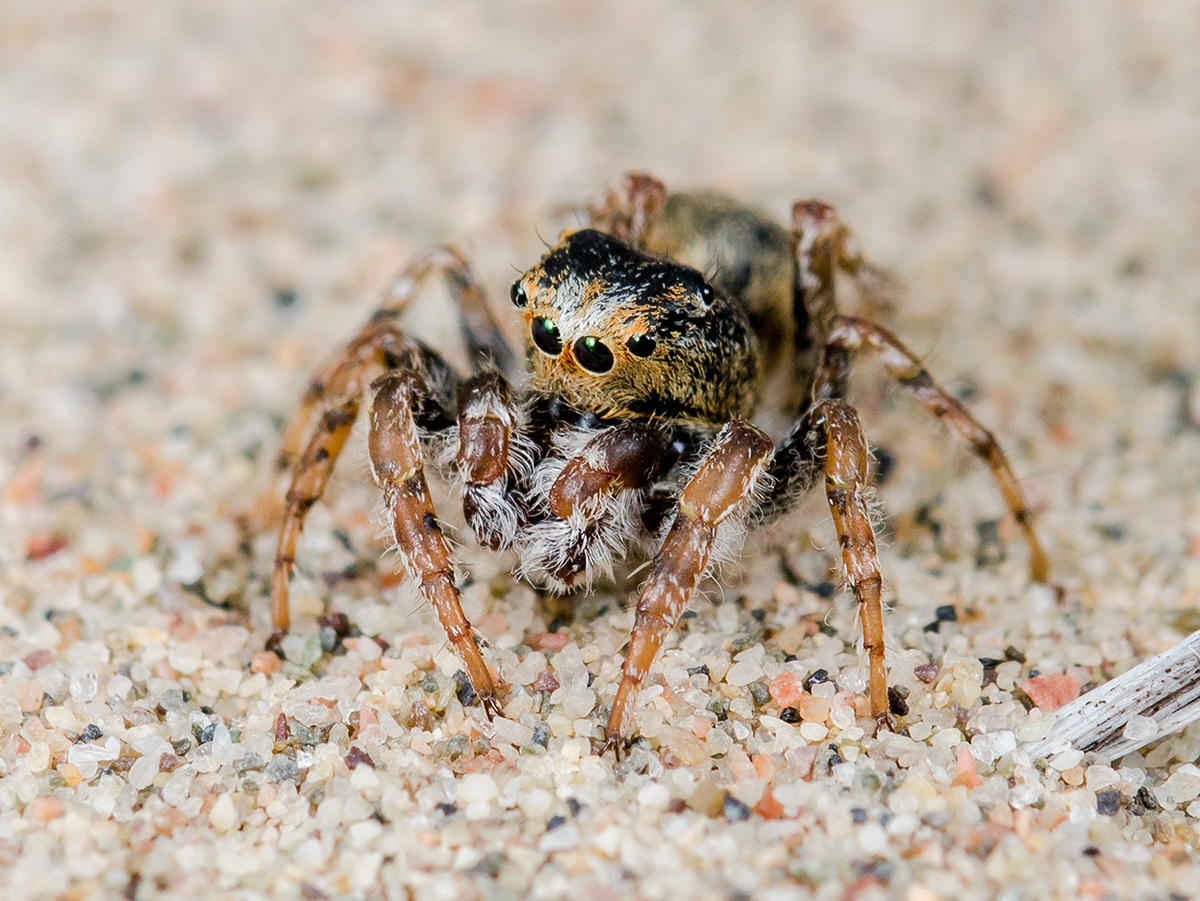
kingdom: Animalia
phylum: Arthropoda
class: Arachnida
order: Araneae
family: Salticidae
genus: Yllenus
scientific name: Yllenus uiguricus
